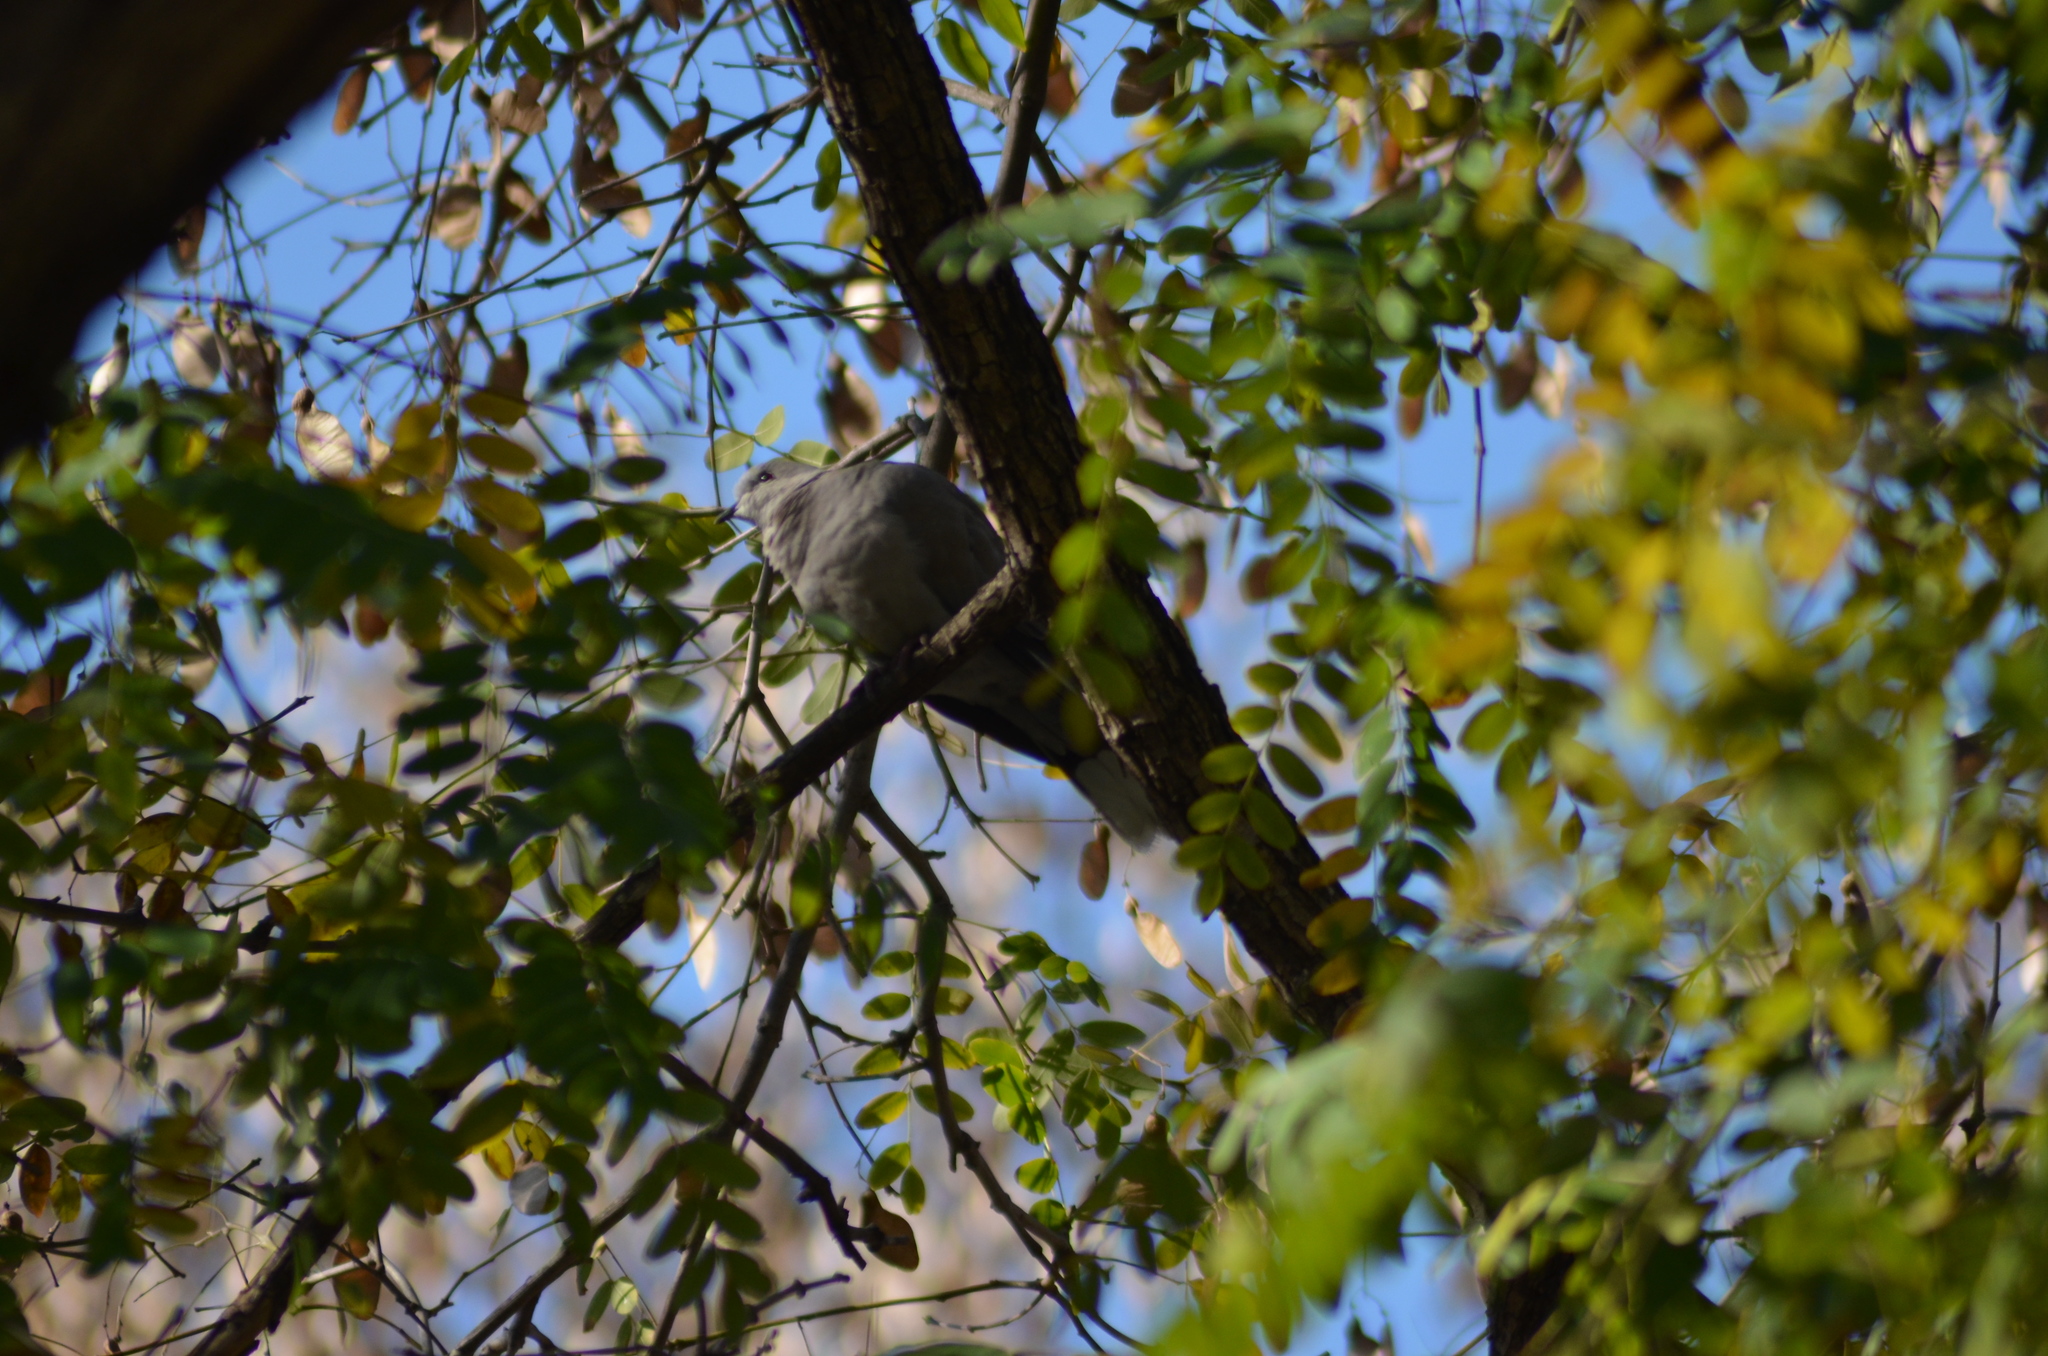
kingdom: Animalia
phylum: Chordata
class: Aves
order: Columbiformes
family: Columbidae
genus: Streptopelia
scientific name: Streptopelia decaocto
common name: Eurasian collared dove
